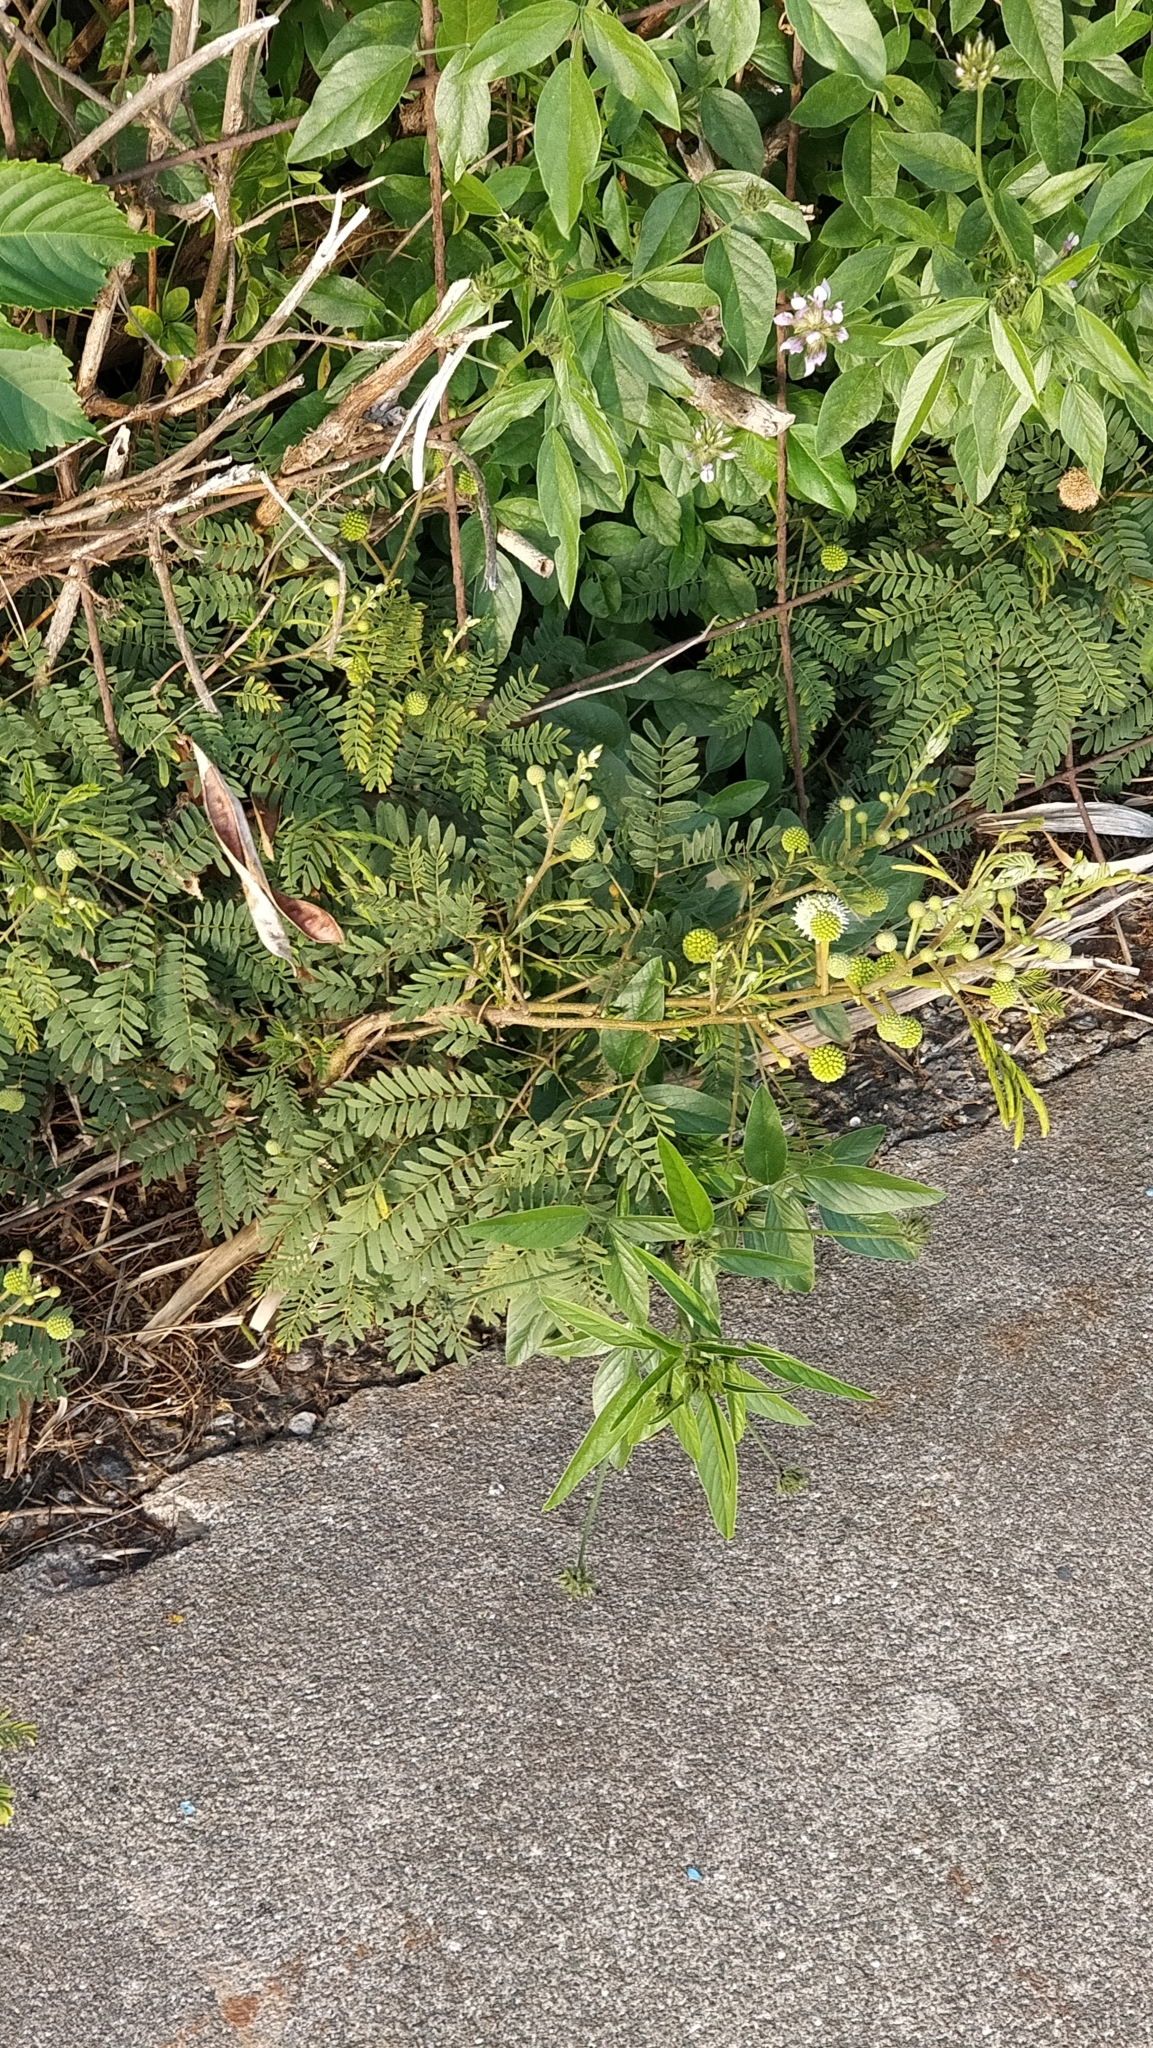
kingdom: Plantae
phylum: Tracheophyta
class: Magnoliopsida
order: Fabales
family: Fabaceae
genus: Leucaena
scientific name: Leucaena leucocephala
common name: White leadtree
